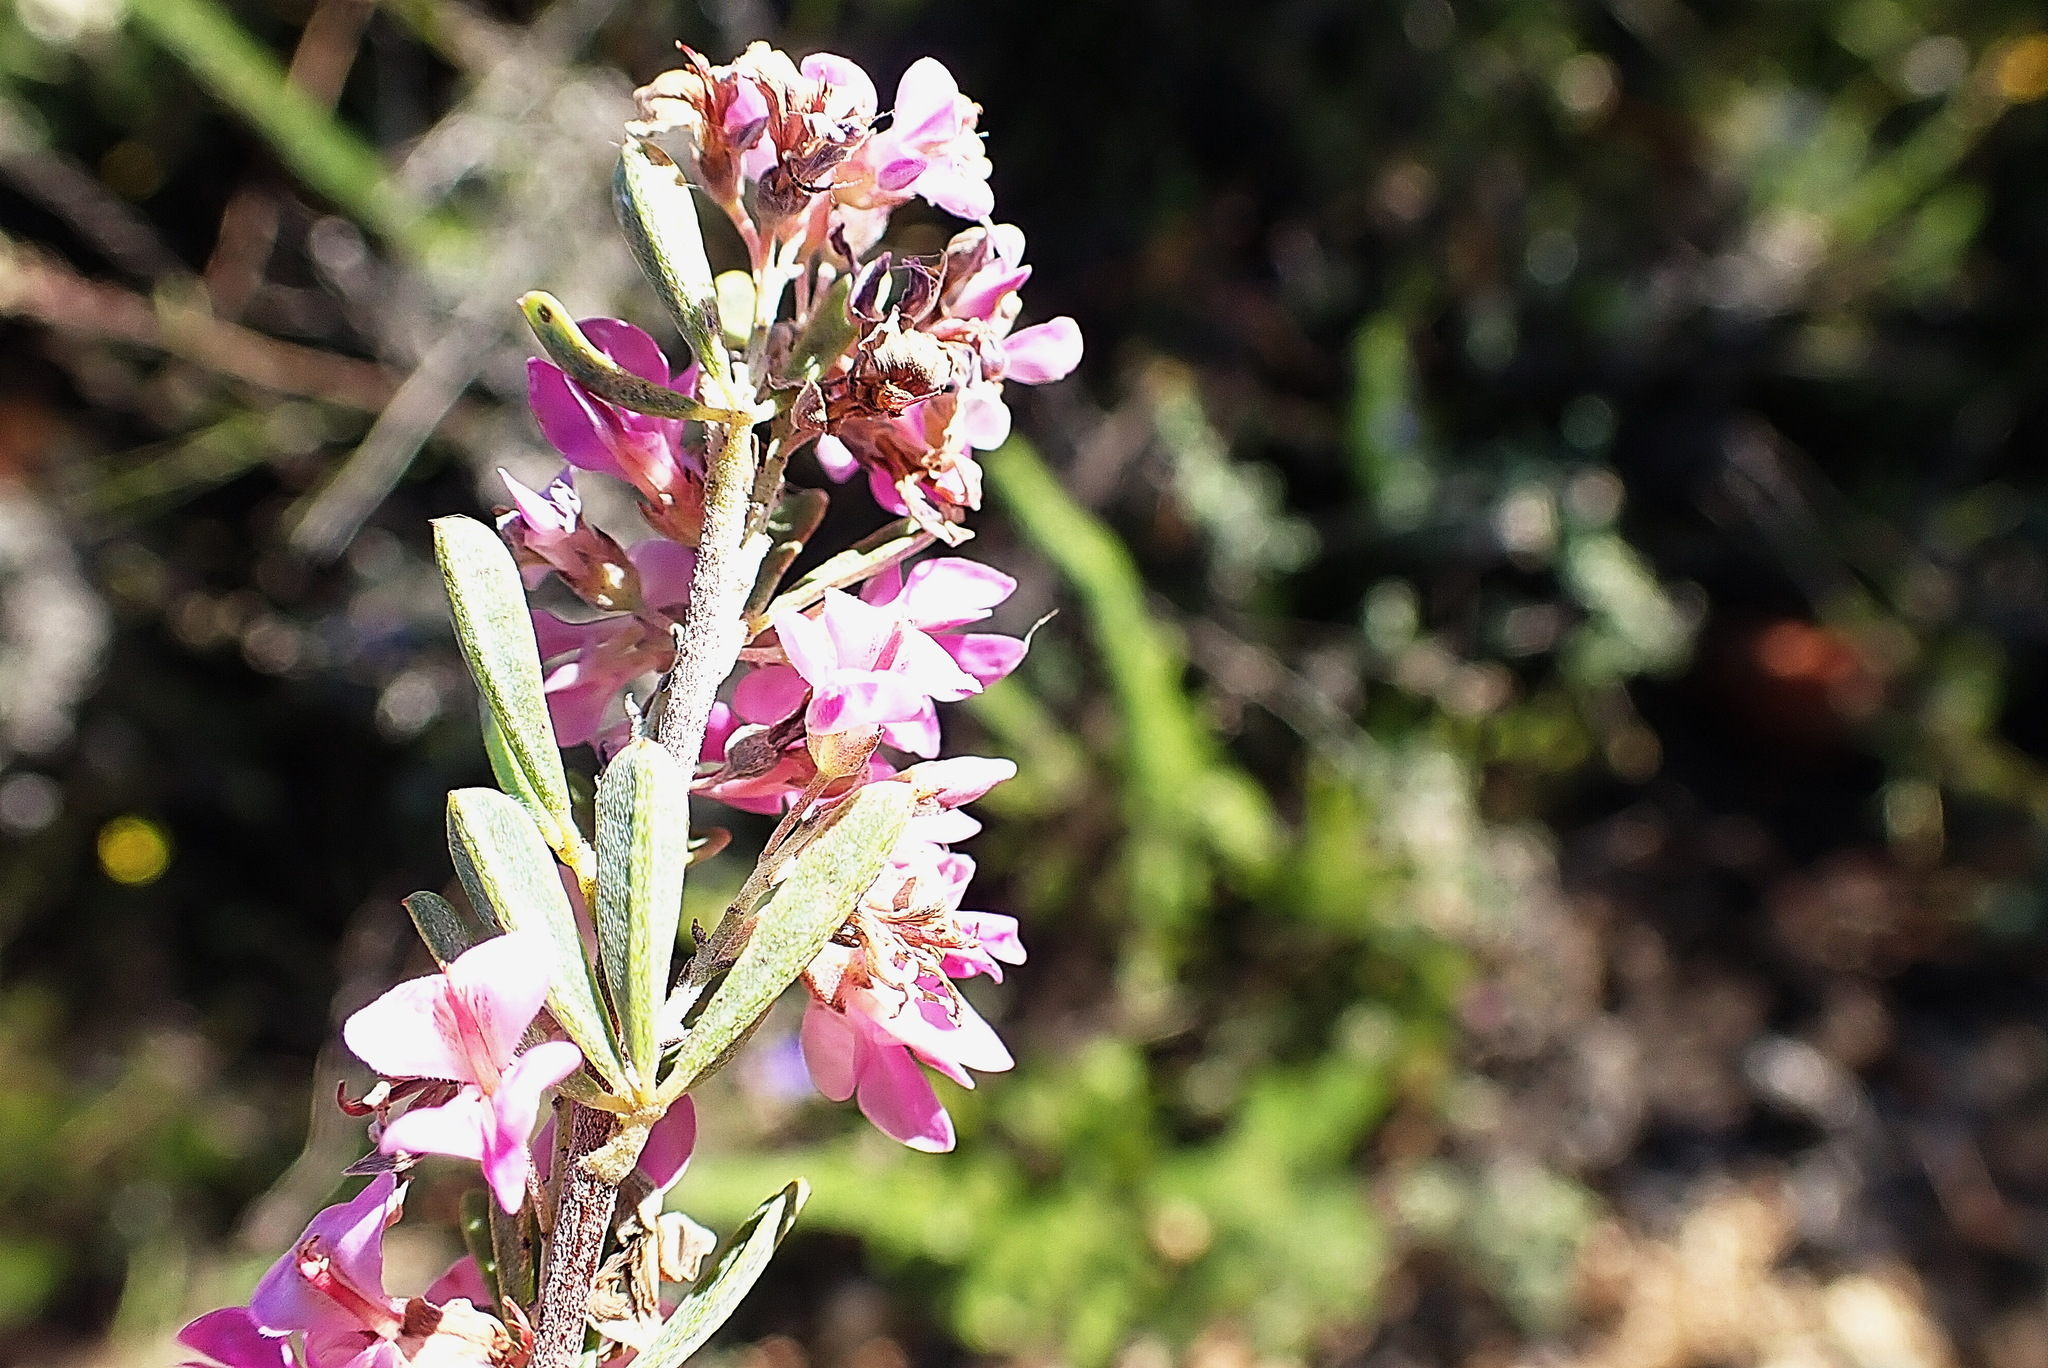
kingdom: Plantae
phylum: Tracheophyta
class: Magnoliopsida
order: Fabales
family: Fabaceae
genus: Indigofera
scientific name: Indigofera flabellata
